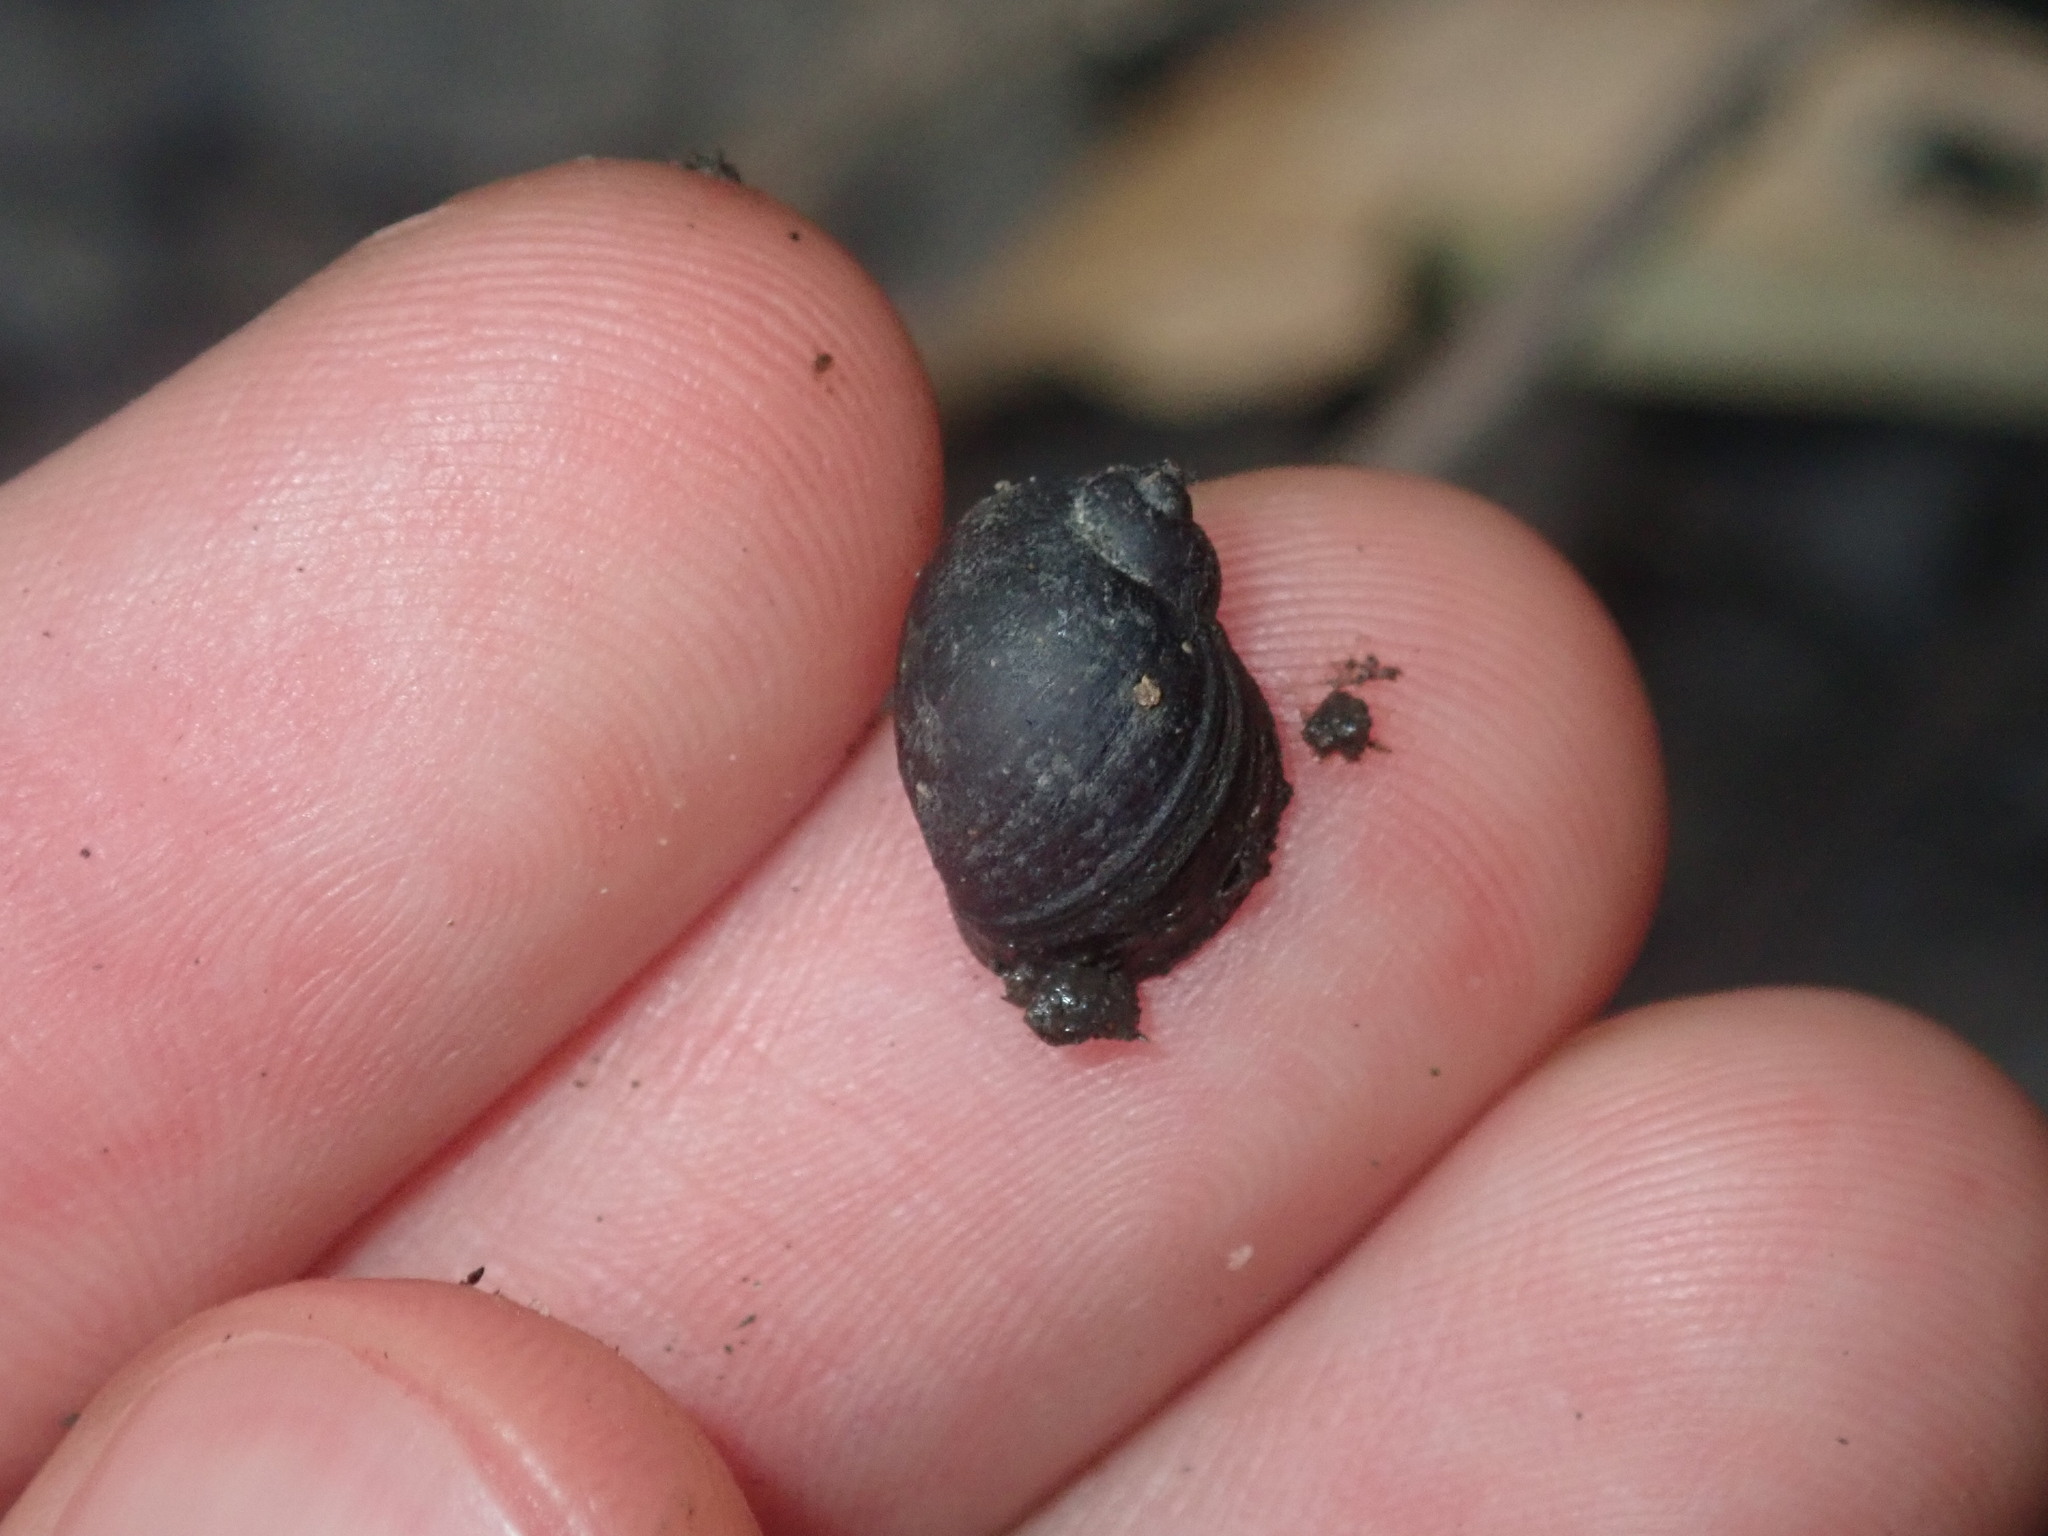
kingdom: Animalia
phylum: Mollusca
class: Gastropoda
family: Planorbidae
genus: Isidorella
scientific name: Isidorella hainesii
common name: Haine’s pouch snail
